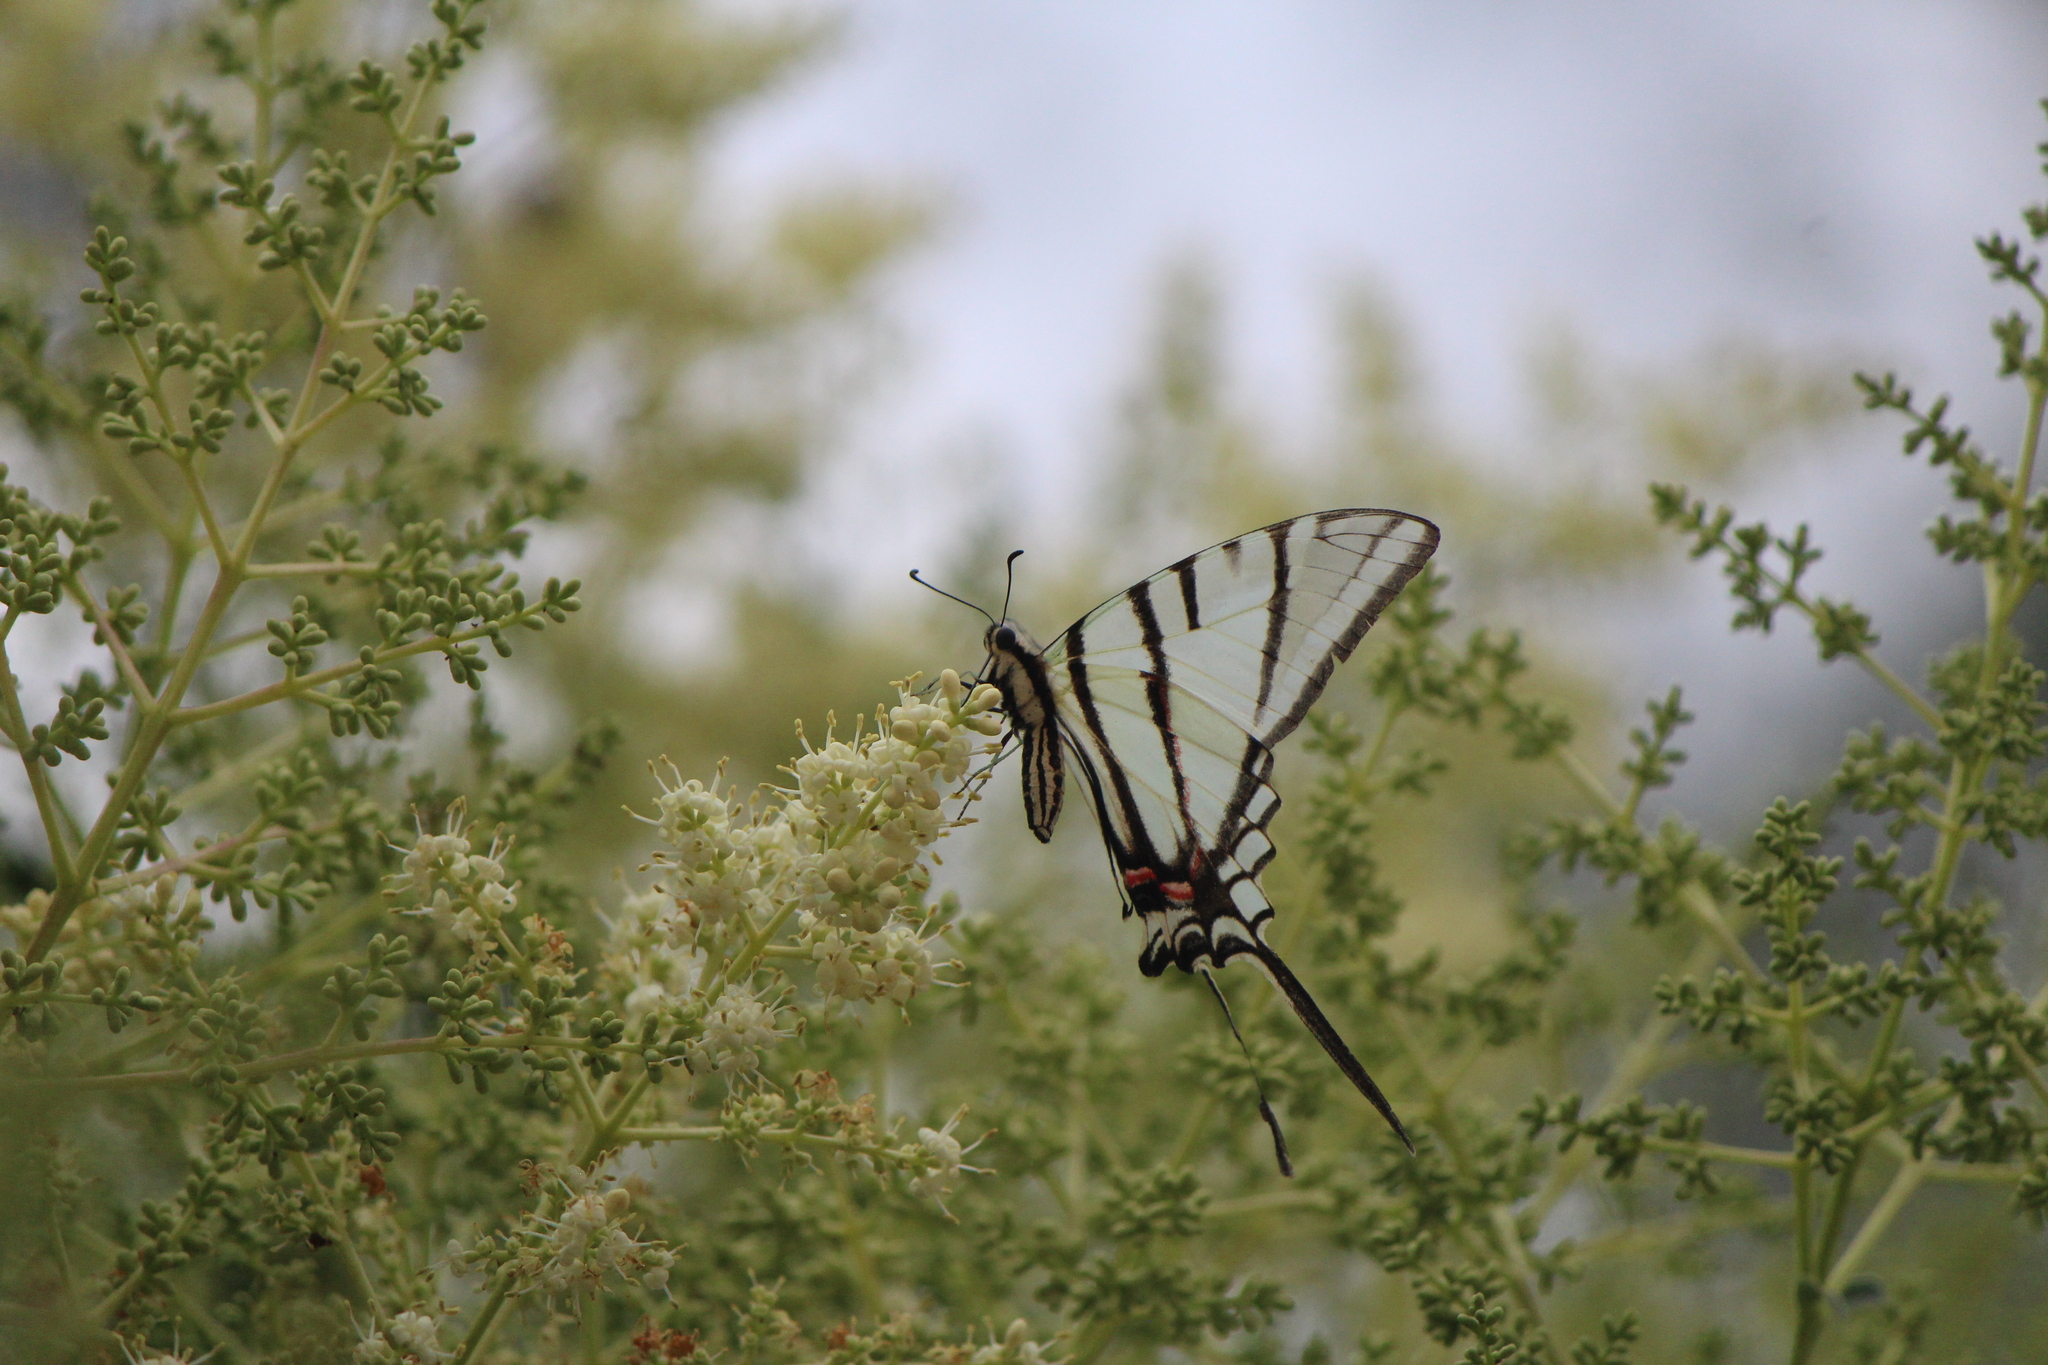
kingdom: Animalia
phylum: Arthropoda
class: Insecta
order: Lepidoptera
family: Papilionidae
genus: Protographium
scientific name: Protographium epidaus
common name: Mexican kite swallowtail
